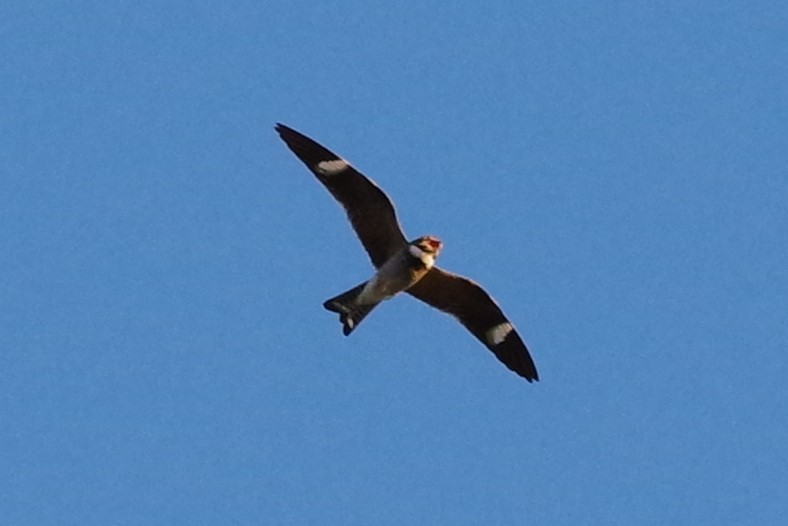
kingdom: Animalia
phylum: Chordata
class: Aves
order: Caprimulgiformes
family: Caprimulgidae
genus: Chordeiles
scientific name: Chordeiles minor
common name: Common nighthawk
